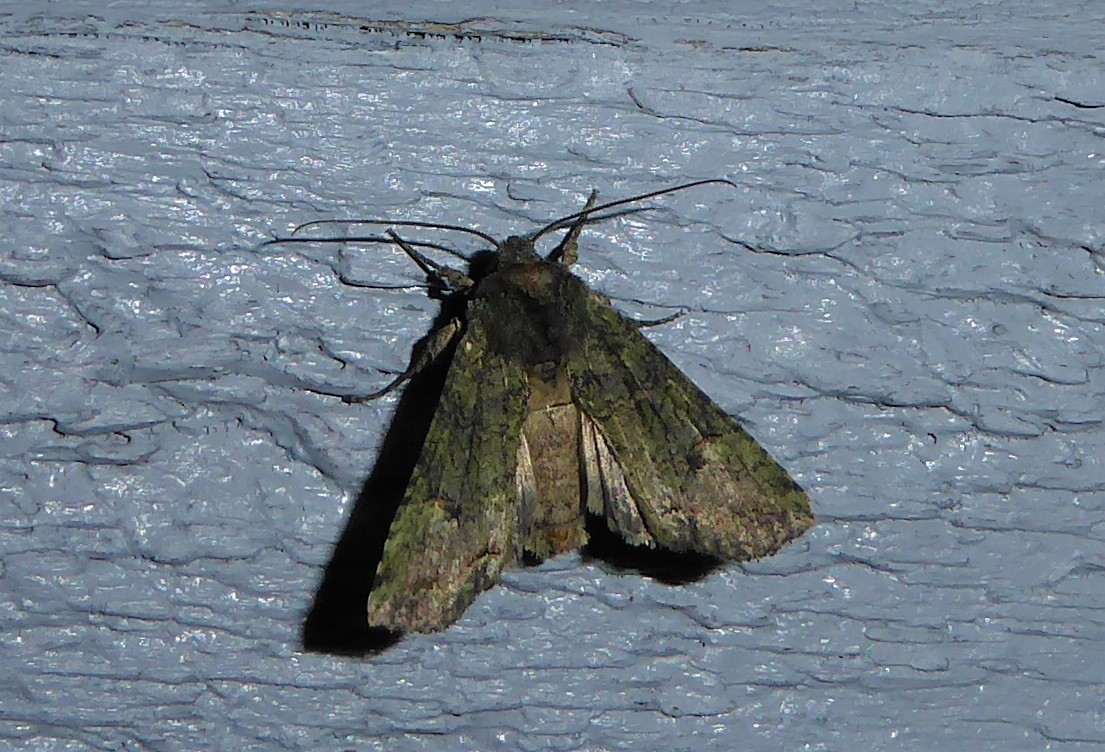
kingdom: Animalia
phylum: Arthropoda
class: Insecta
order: Lepidoptera
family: Noctuidae
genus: Meterana
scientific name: Meterana levis
